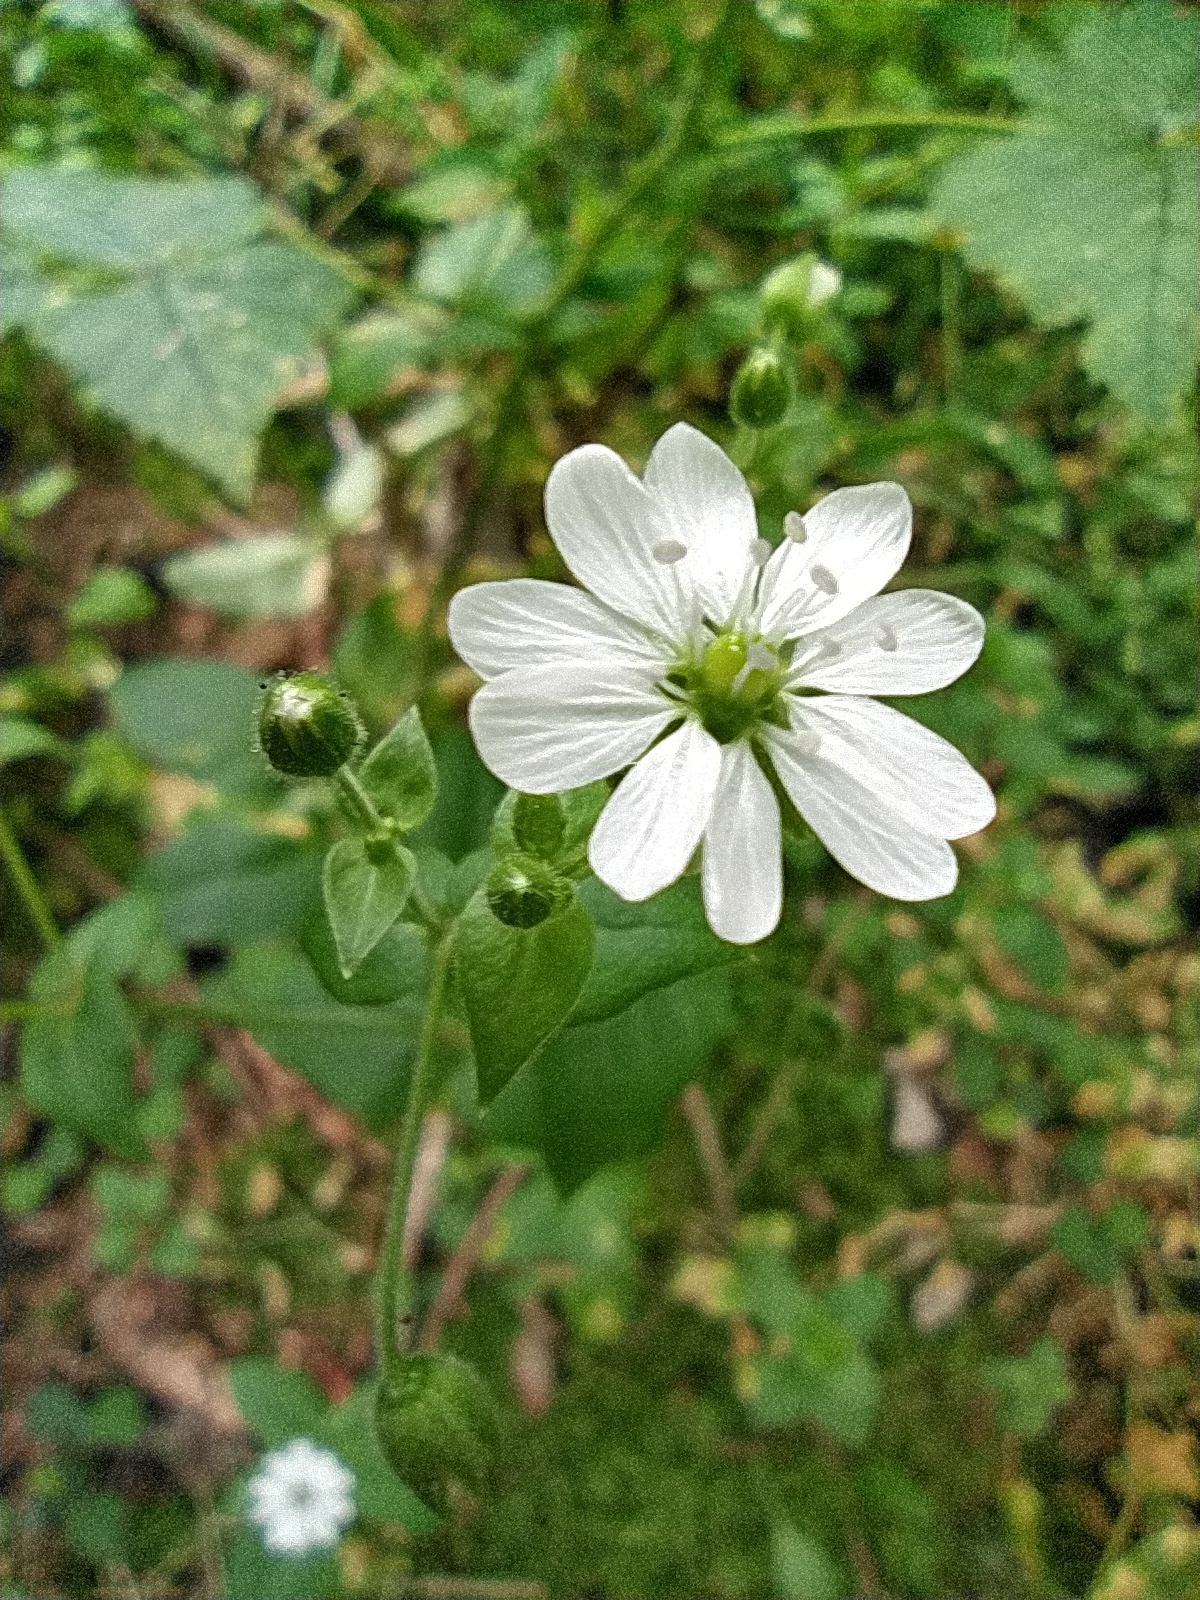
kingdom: Plantae
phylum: Tracheophyta
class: Magnoliopsida
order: Caryophyllales
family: Caryophyllaceae
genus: Stellaria
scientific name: Stellaria aquatica
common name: Water chickweed
